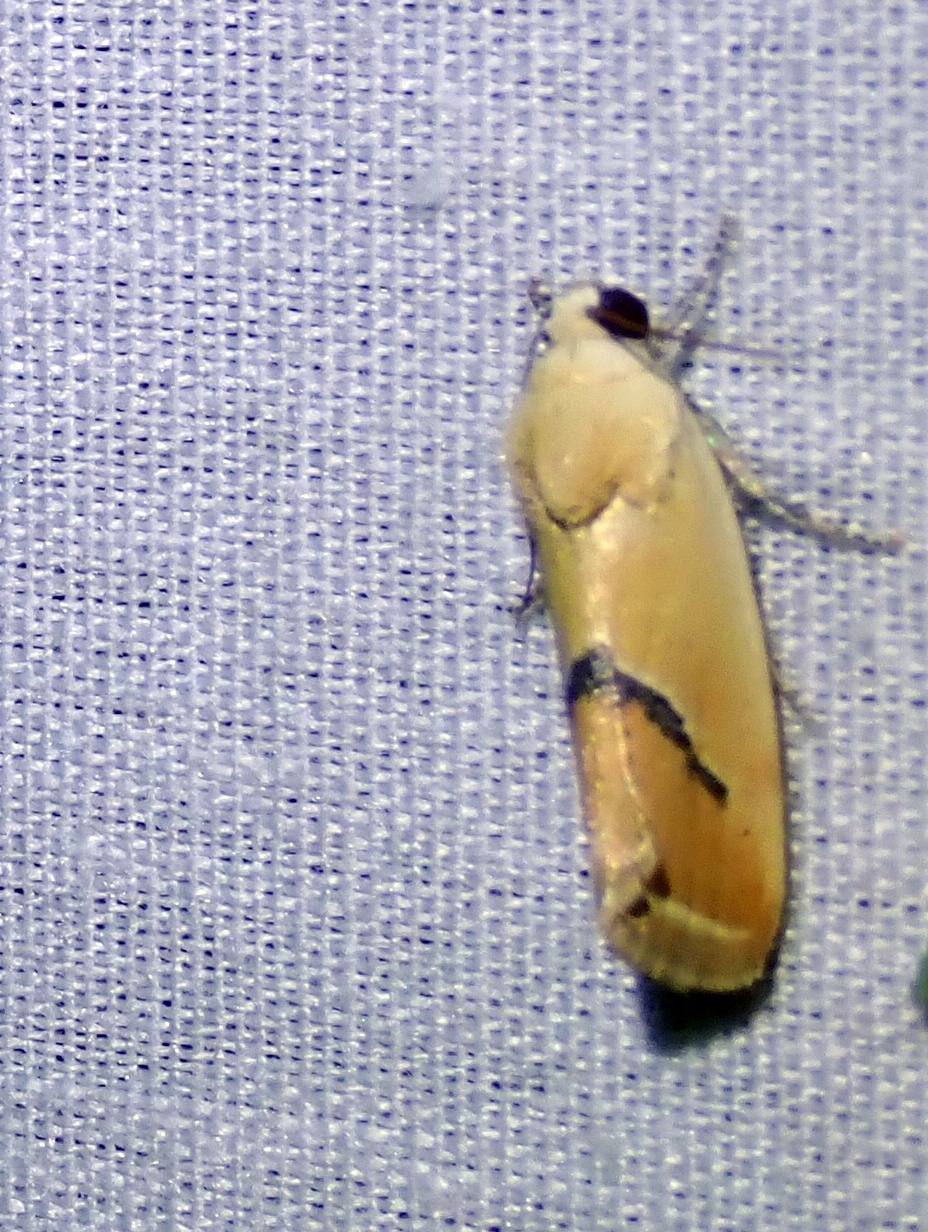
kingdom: Animalia
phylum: Arthropoda
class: Insecta
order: Lepidoptera
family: Noctuidae
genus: Ponometia
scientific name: Ponometia venustula
